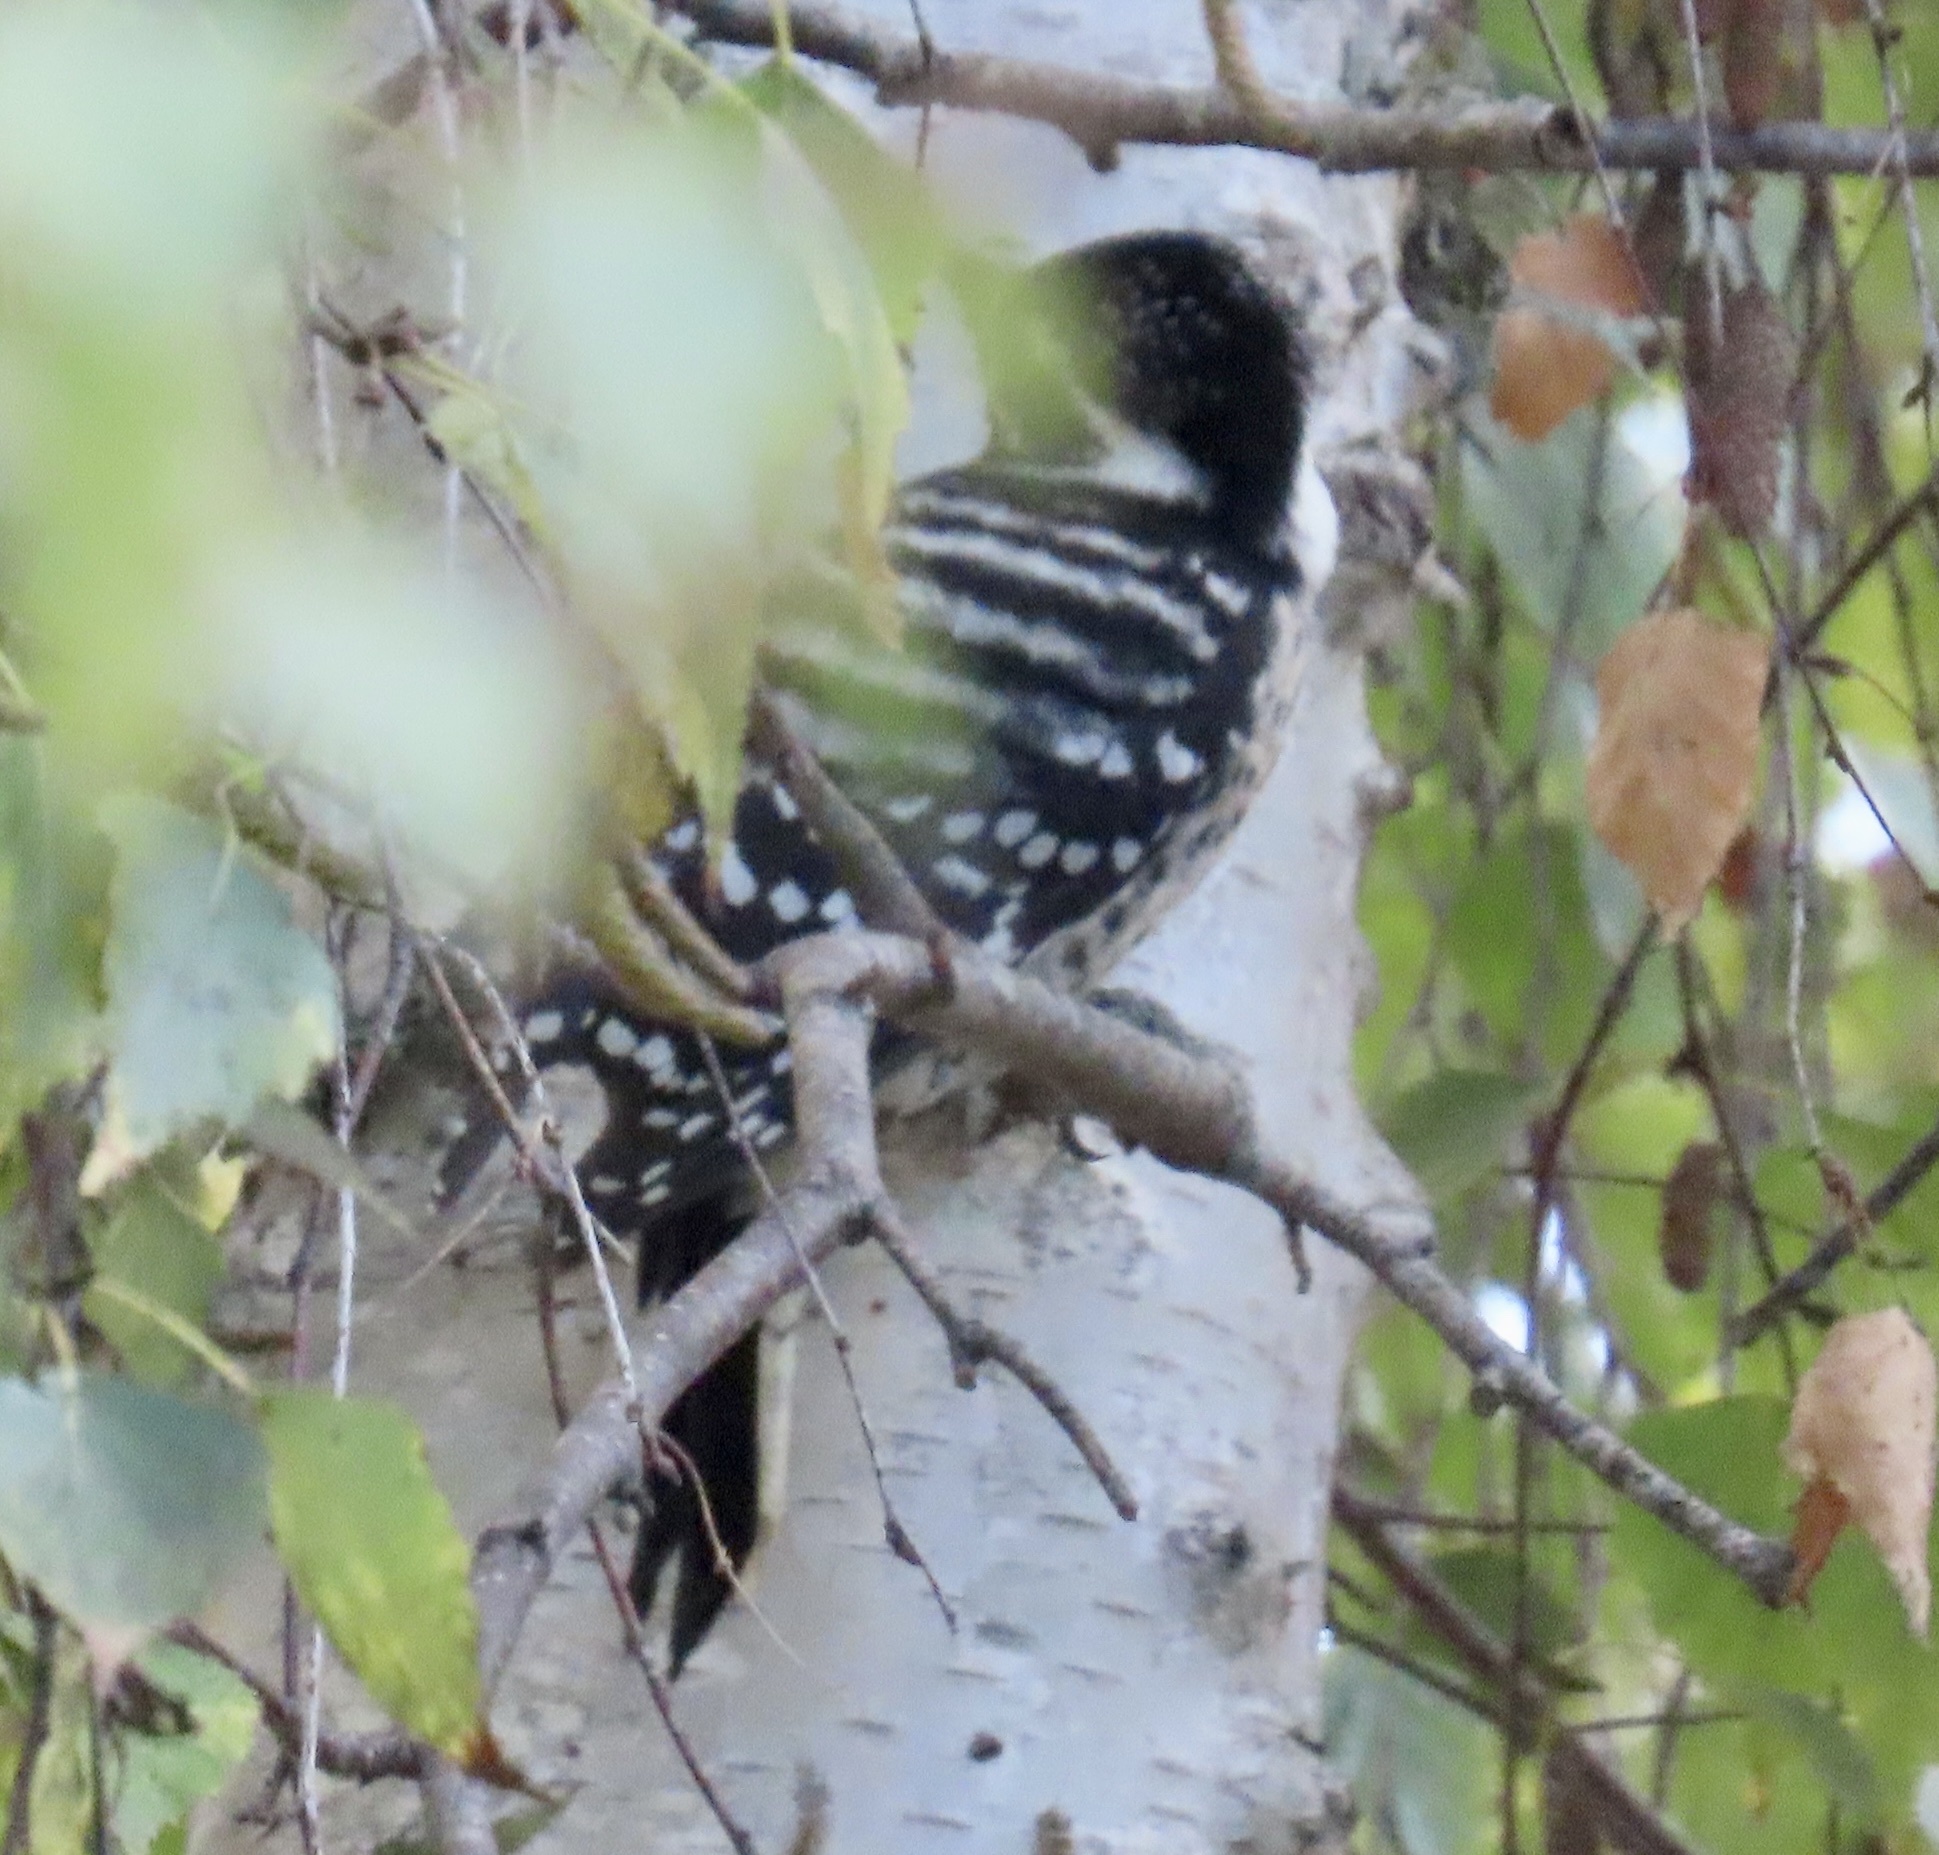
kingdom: Animalia
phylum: Chordata
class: Aves
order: Piciformes
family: Picidae
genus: Dryobates
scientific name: Dryobates nuttallii
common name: Nuttall's woodpecker
